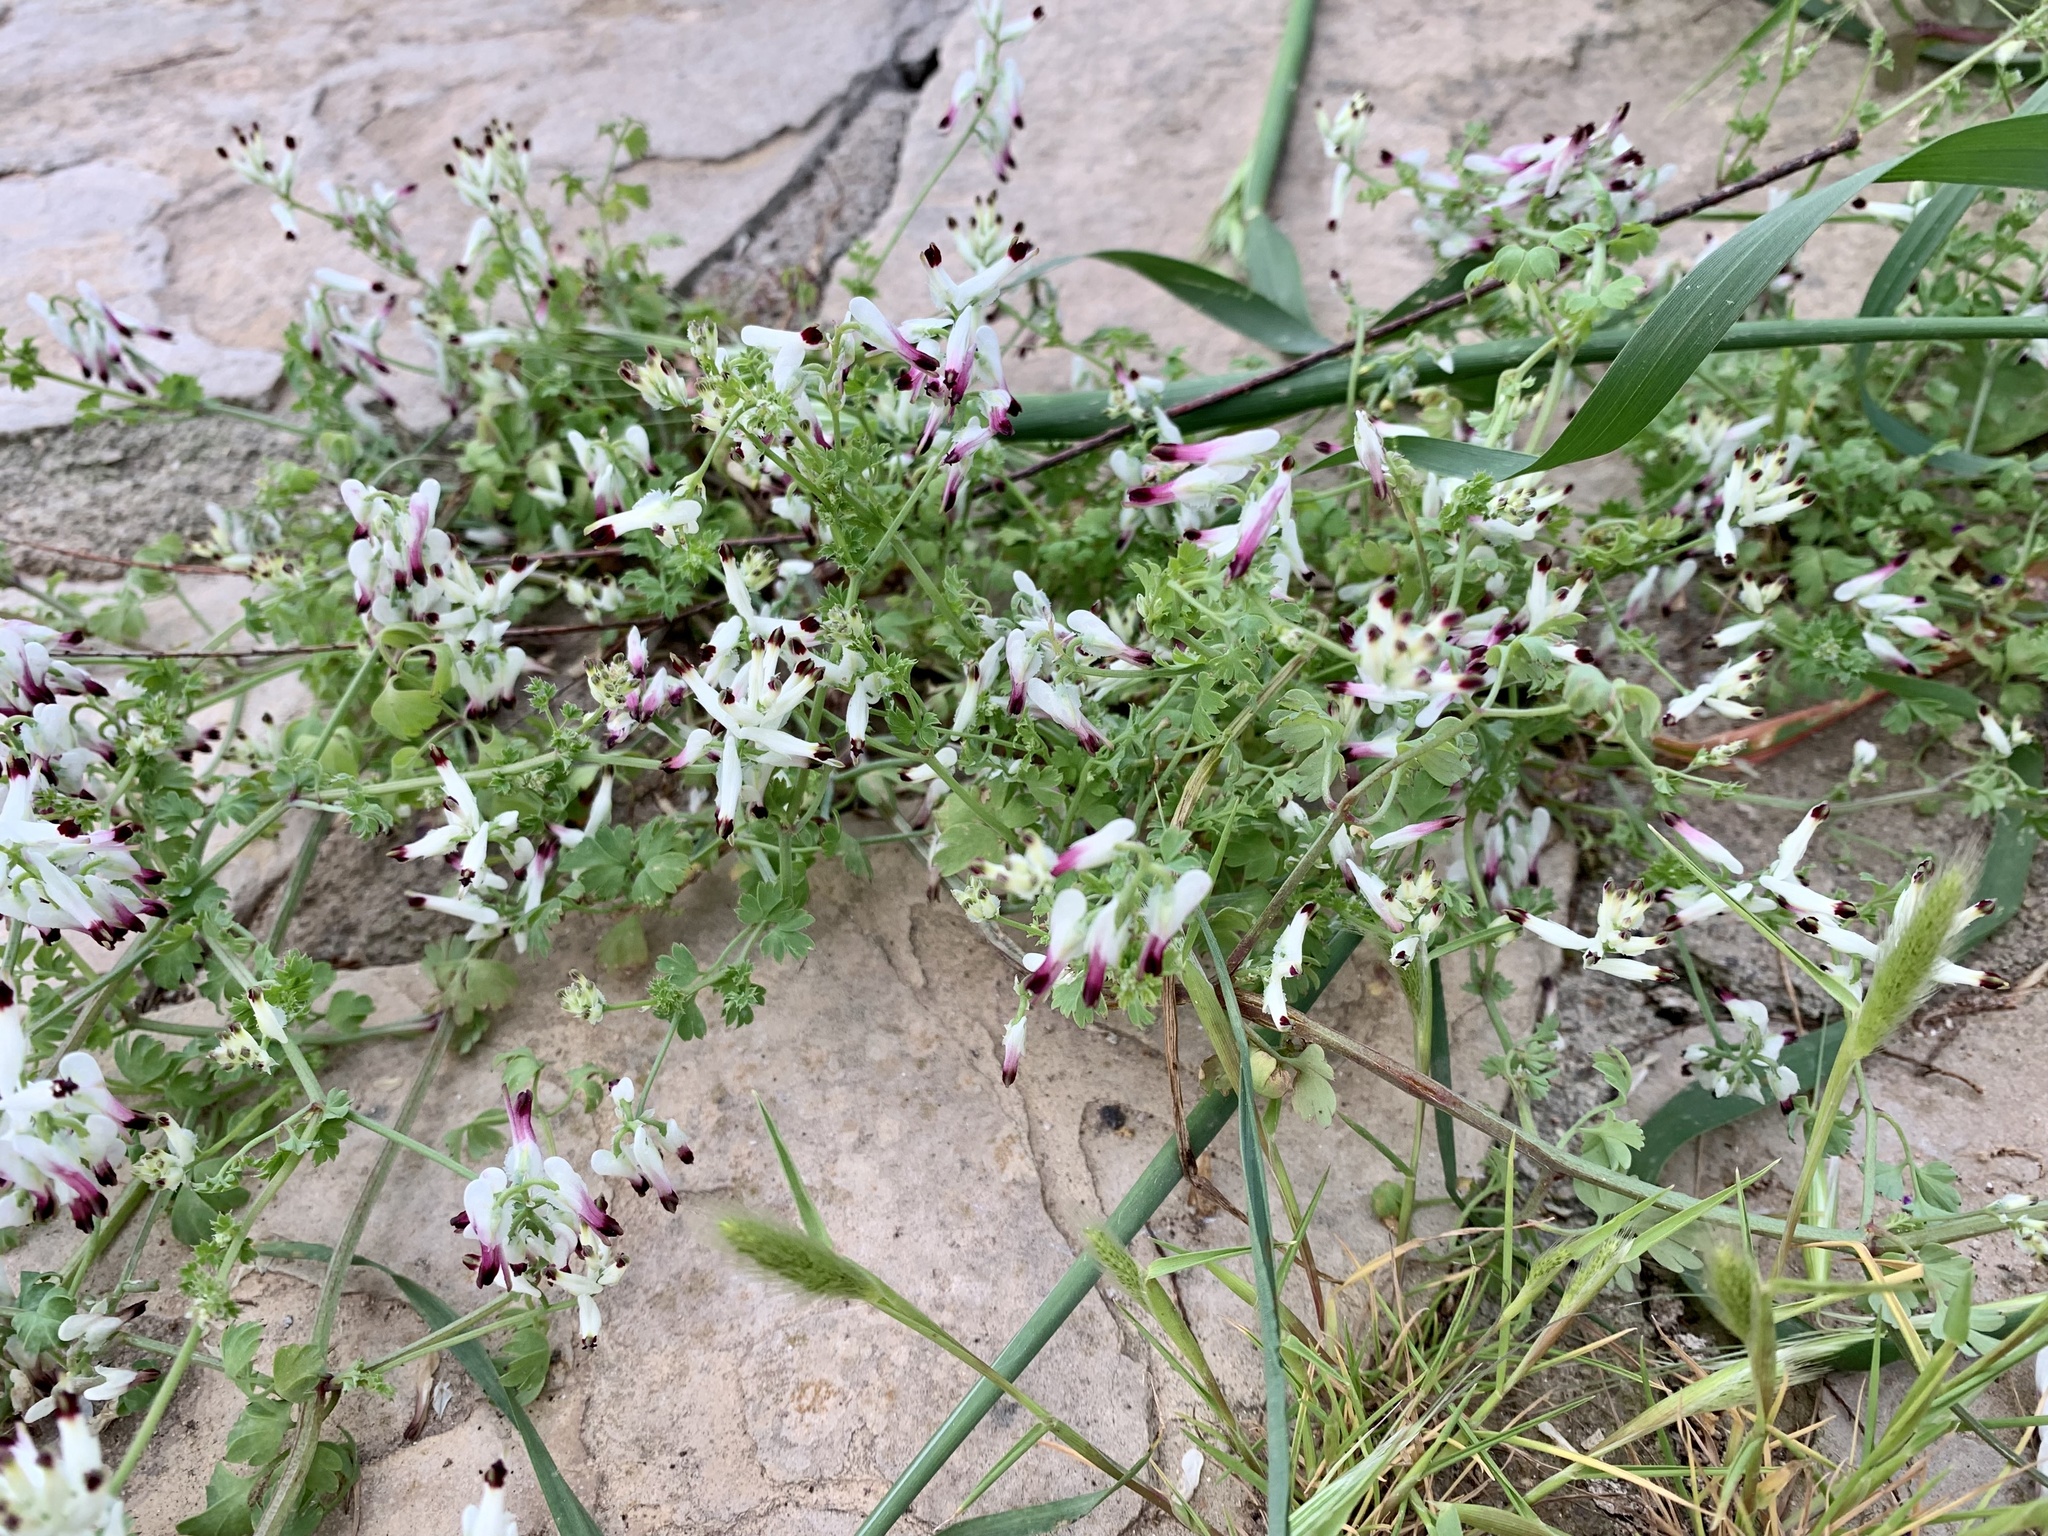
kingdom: Plantae
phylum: Tracheophyta
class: Magnoliopsida
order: Ranunculales
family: Papaveraceae
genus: Fumaria
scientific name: Fumaria capreolata
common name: White ramping-fumitory
